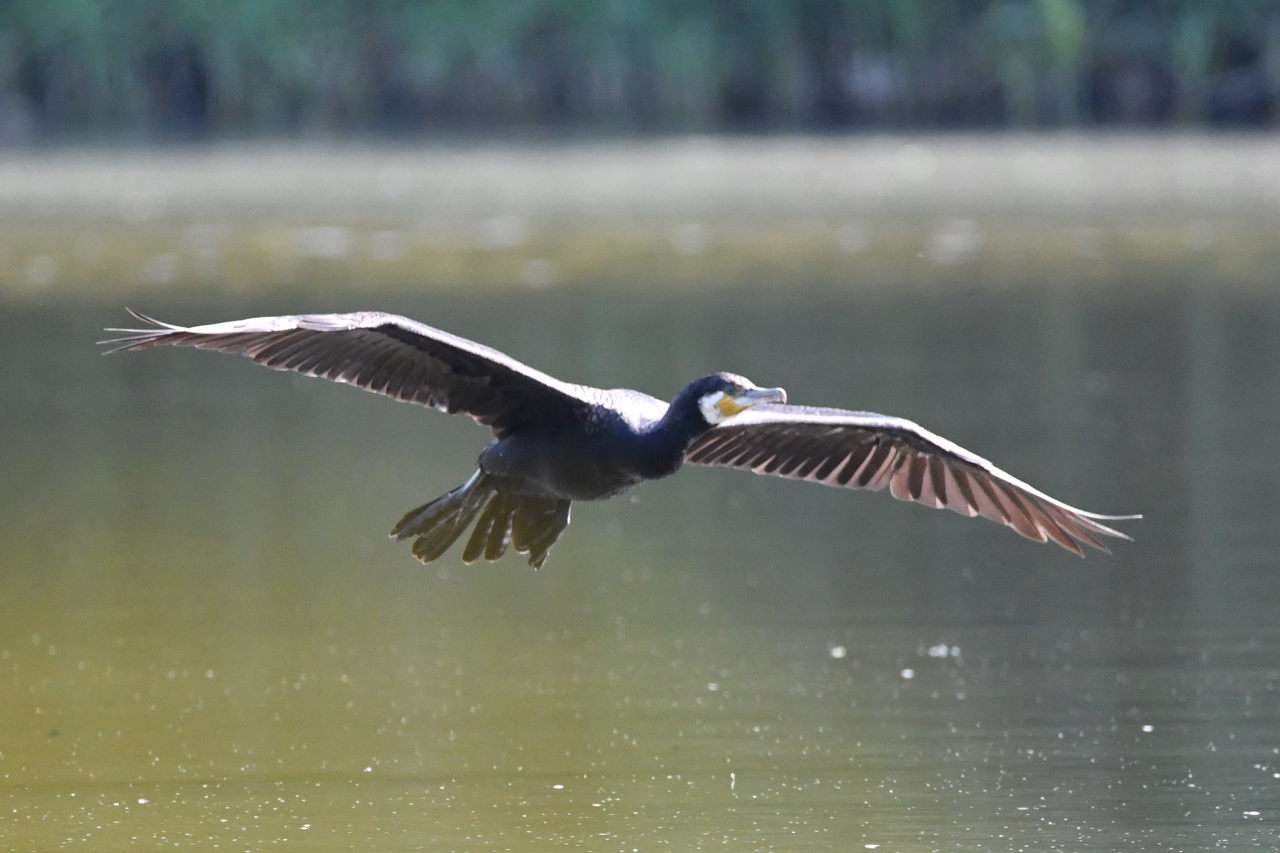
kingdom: Animalia
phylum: Chordata
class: Aves
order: Suliformes
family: Phalacrocoracidae
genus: Phalacrocorax
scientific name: Phalacrocorax carbo
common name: Great cormorant
